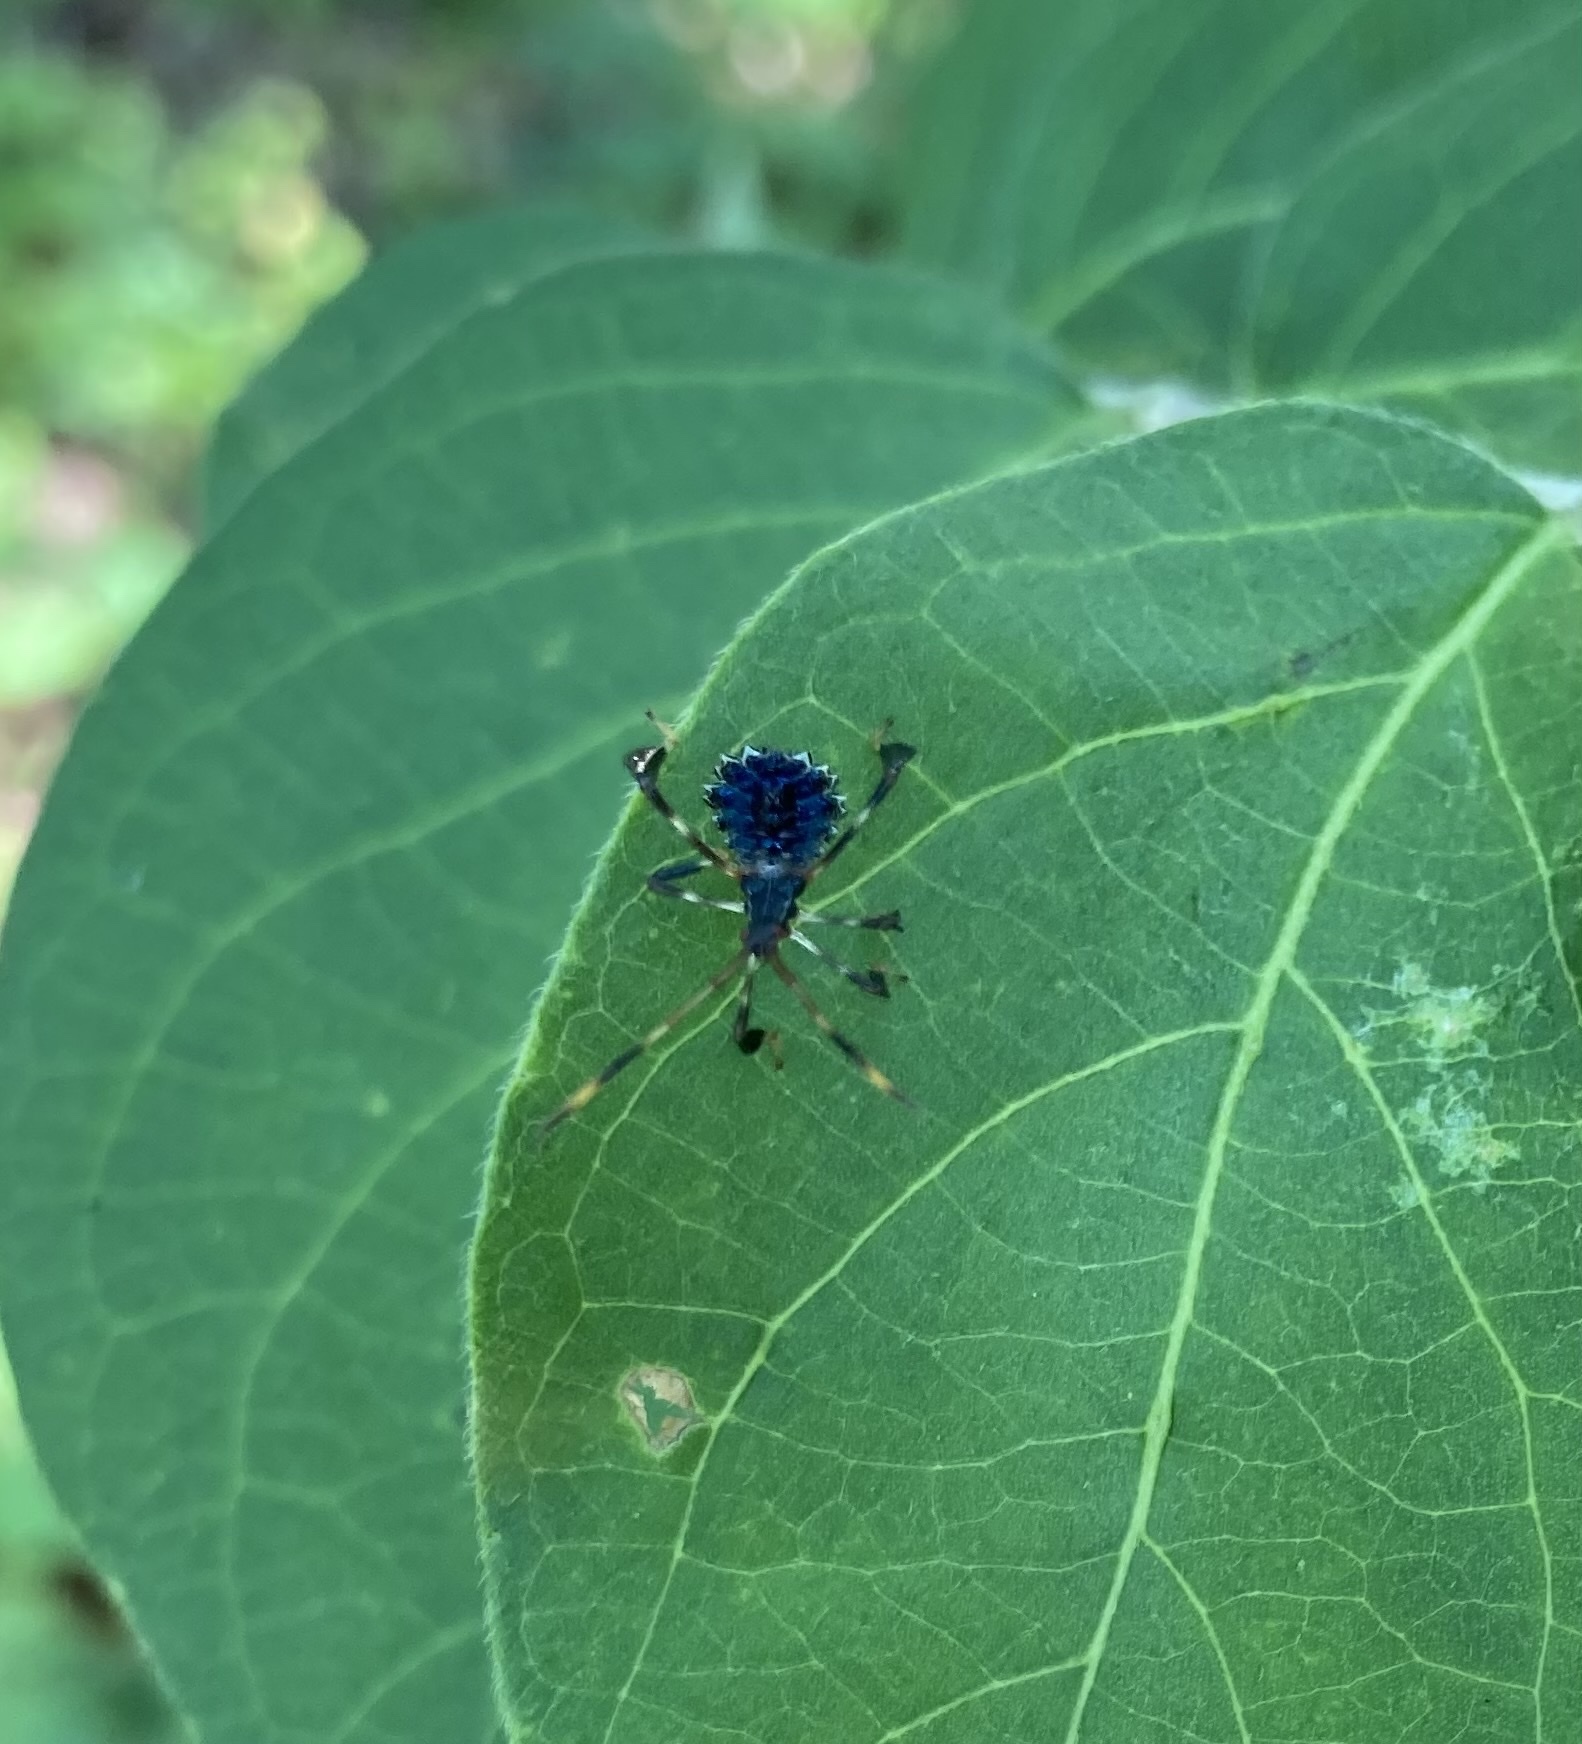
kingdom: Animalia
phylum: Arthropoda
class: Insecta
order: Hemiptera
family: Coreidae
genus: Acanthocephala
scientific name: Acanthocephala terminalis
